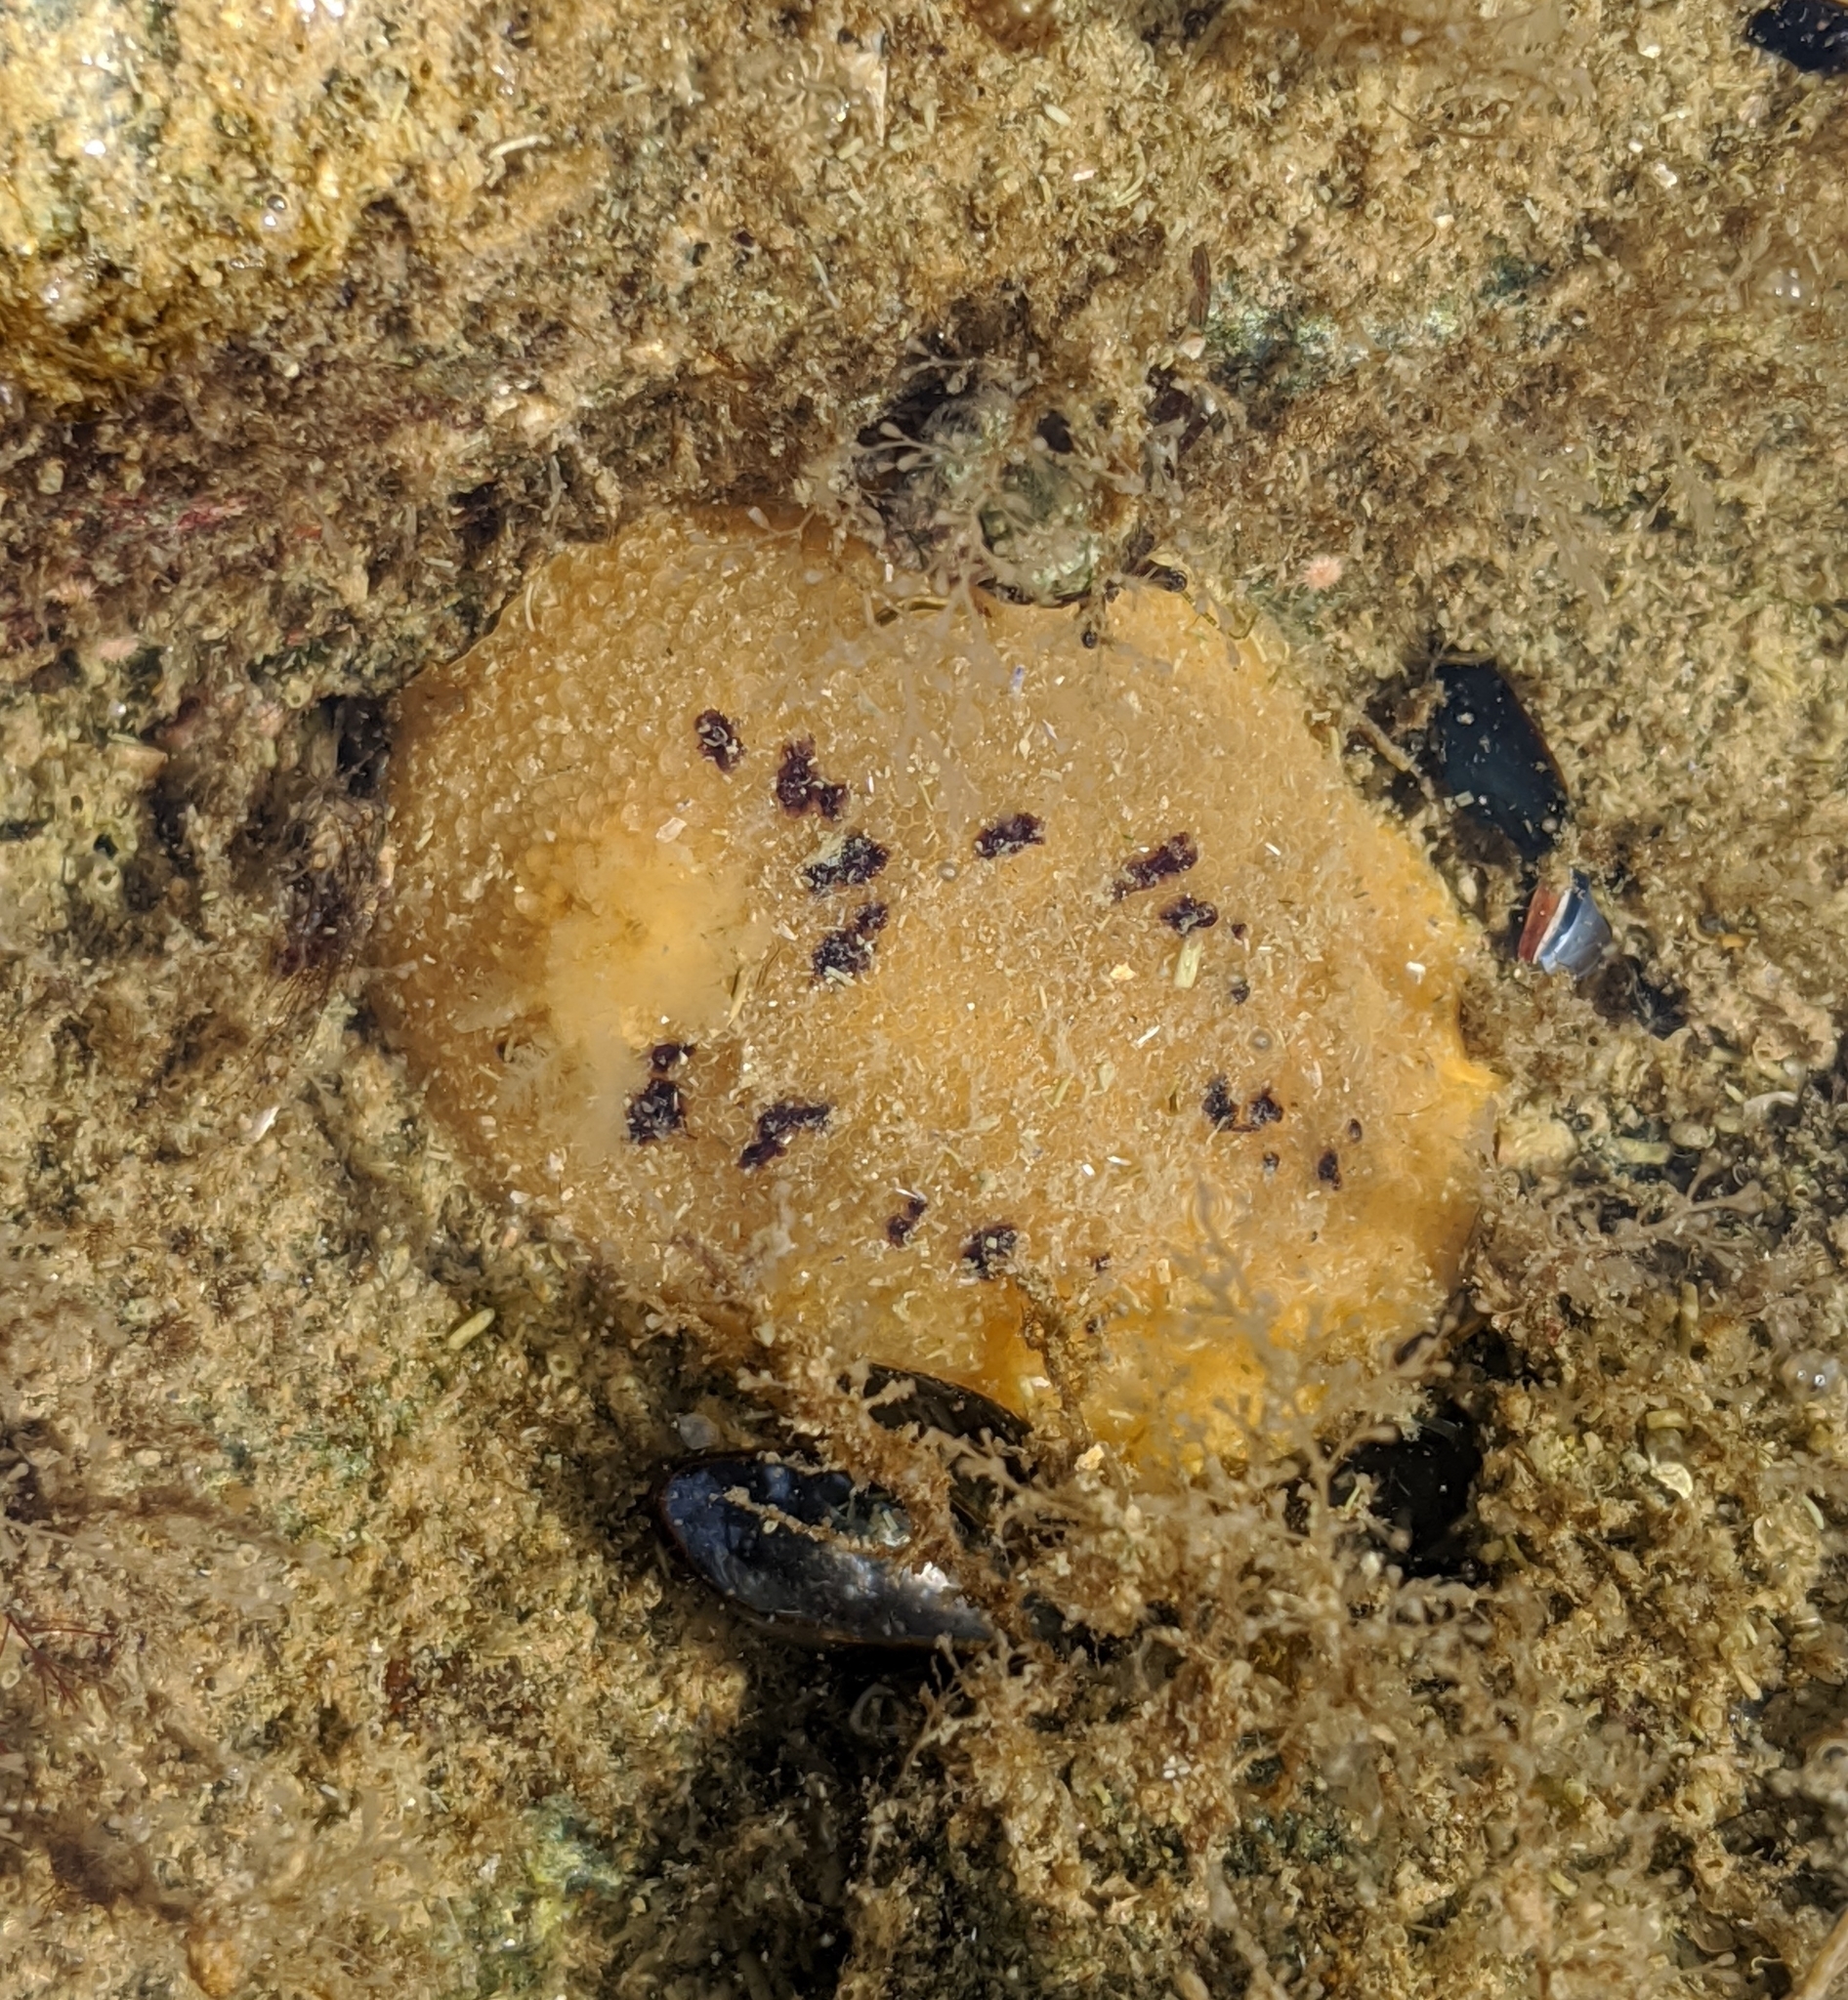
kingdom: Animalia
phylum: Mollusca
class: Gastropoda
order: Nudibranchia
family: Dorididae
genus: Doris
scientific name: Doris montereyensis
